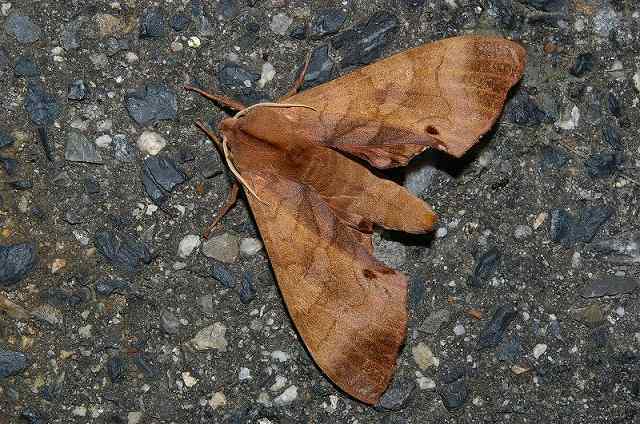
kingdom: Animalia
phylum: Arthropoda
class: Insecta
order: Lepidoptera
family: Sphingidae
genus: Marumba
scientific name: Marumba echephron
